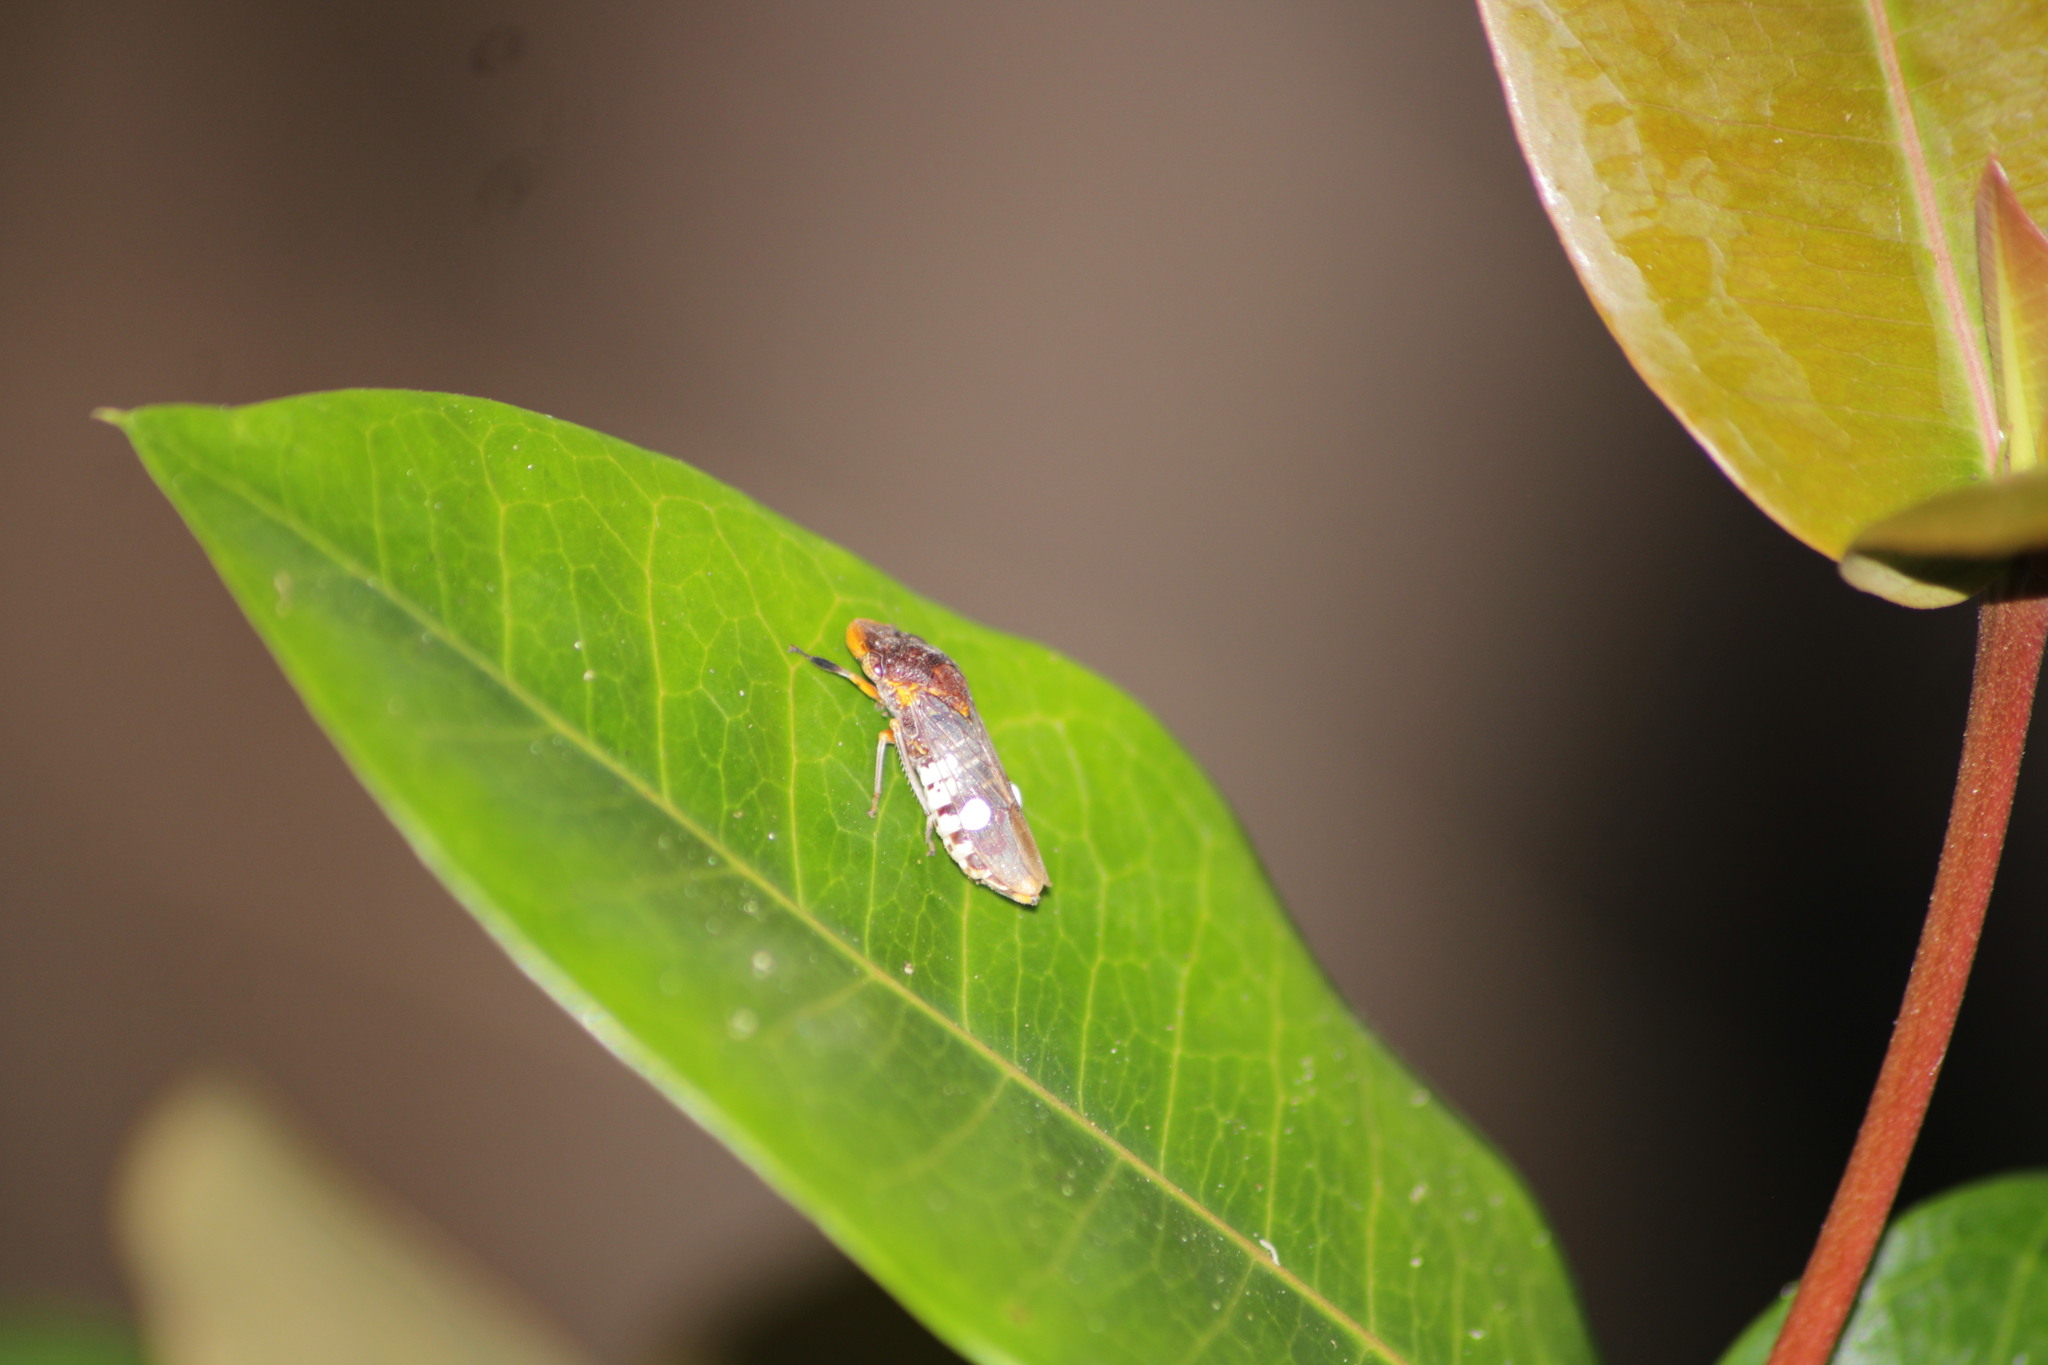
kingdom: Animalia
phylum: Arthropoda
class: Insecta
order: Hemiptera
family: Cicadellidae
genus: Homalodisca
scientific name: Homalodisca ichthyocephala
